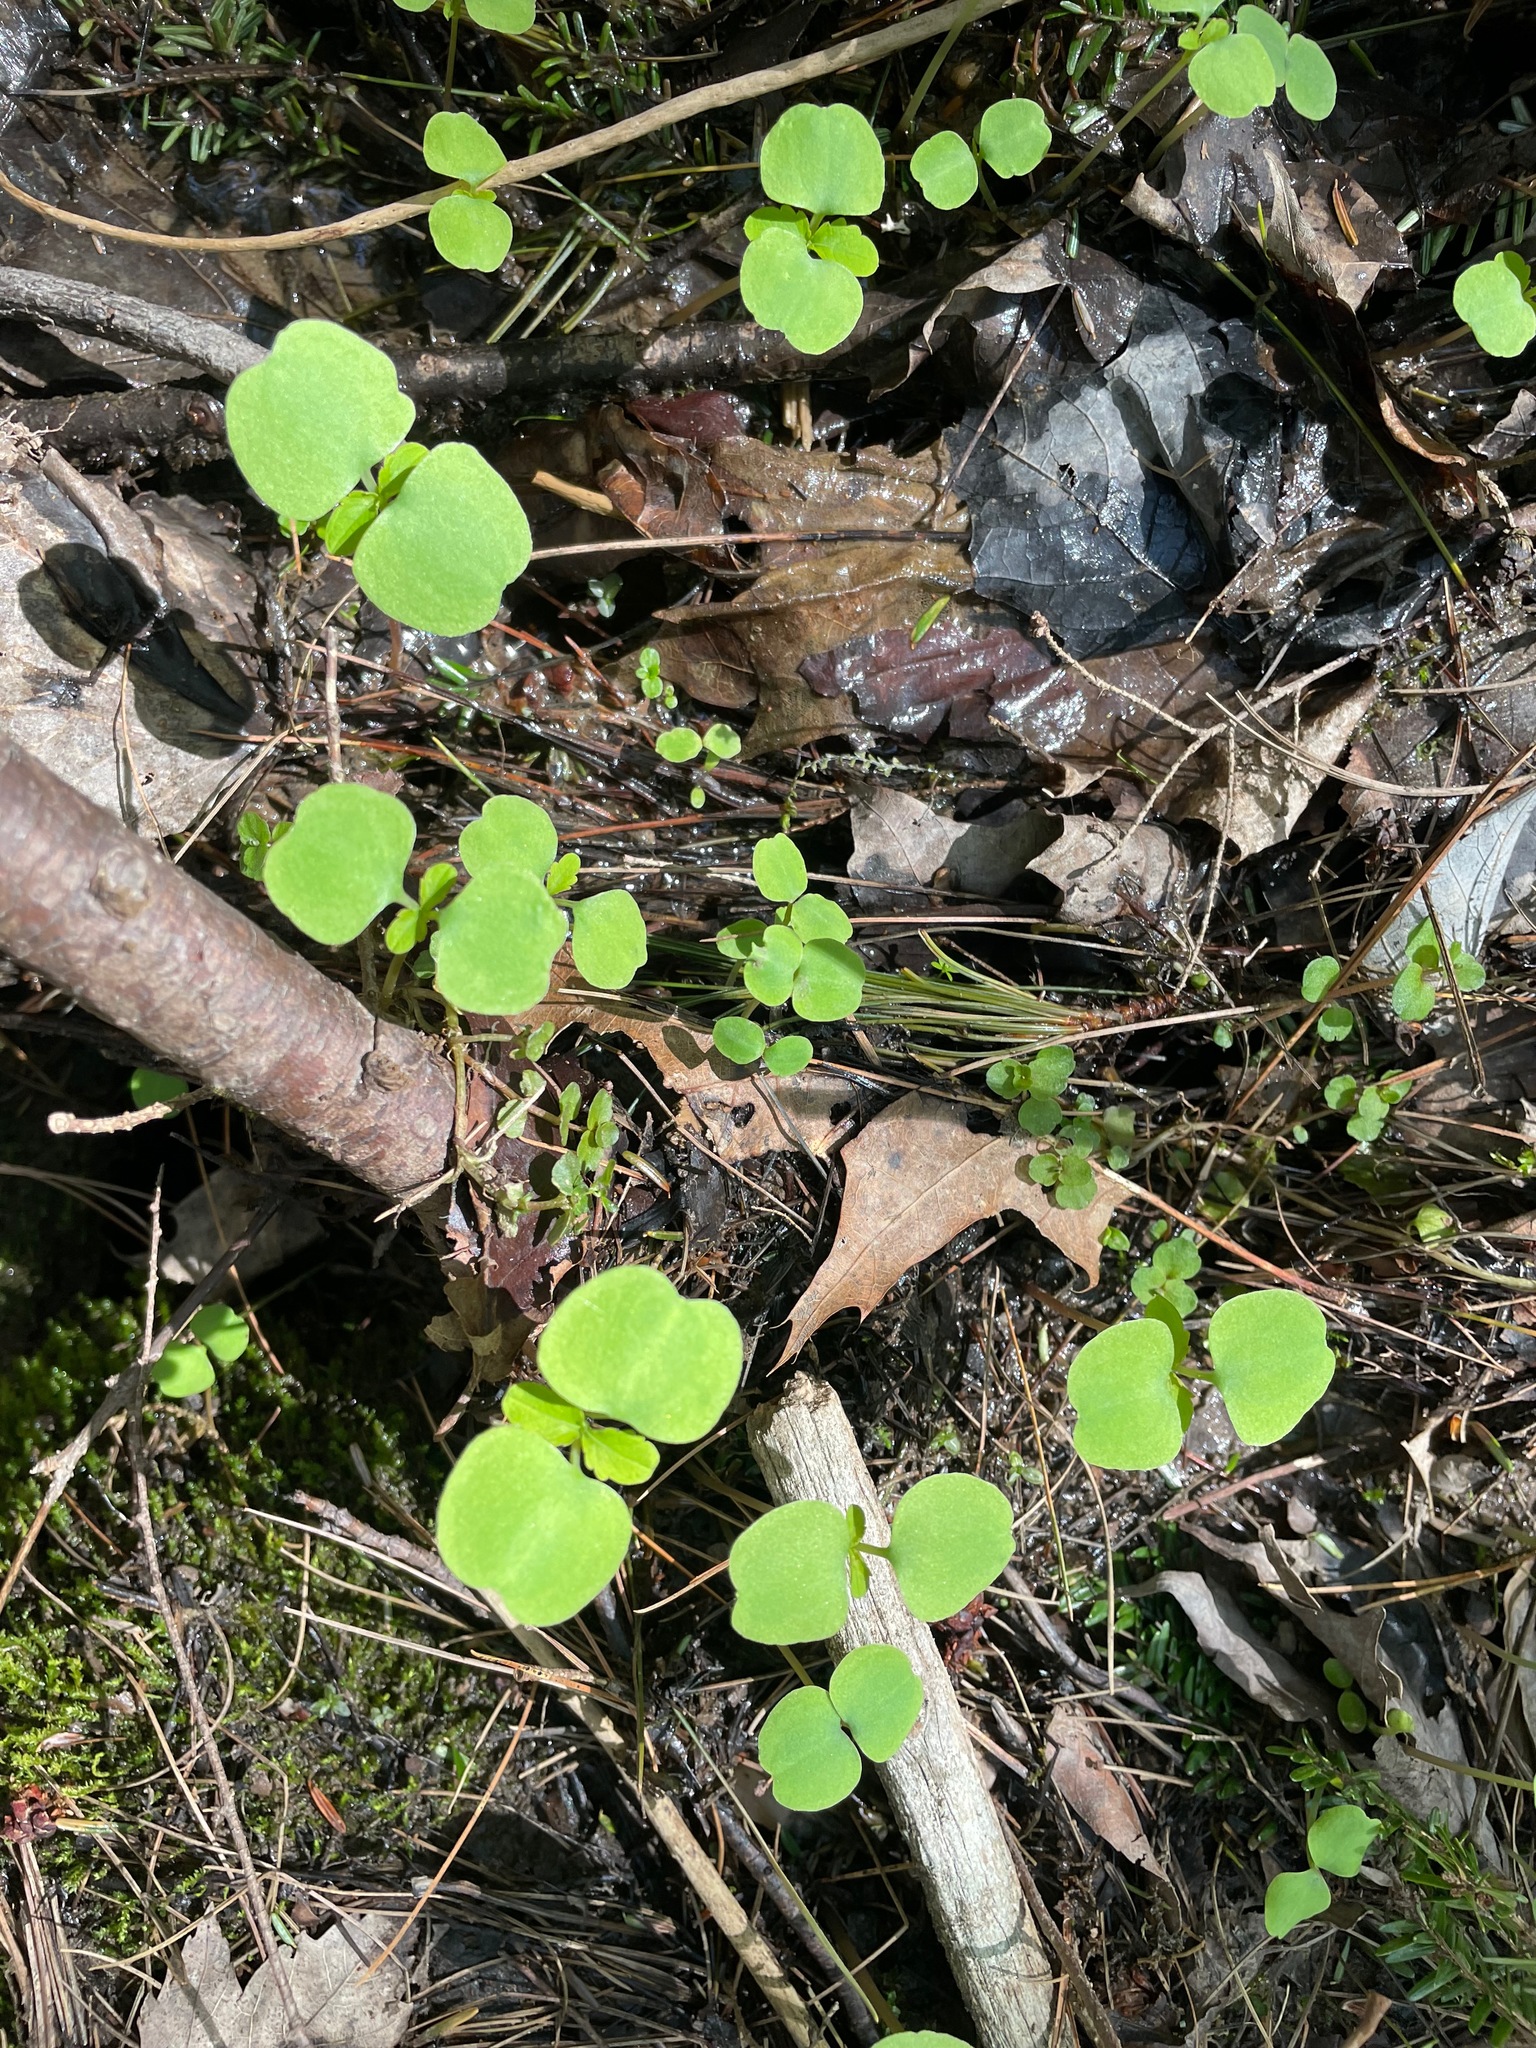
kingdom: Plantae
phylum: Tracheophyta
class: Magnoliopsida
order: Ericales
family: Balsaminaceae
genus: Impatiens
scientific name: Impatiens
